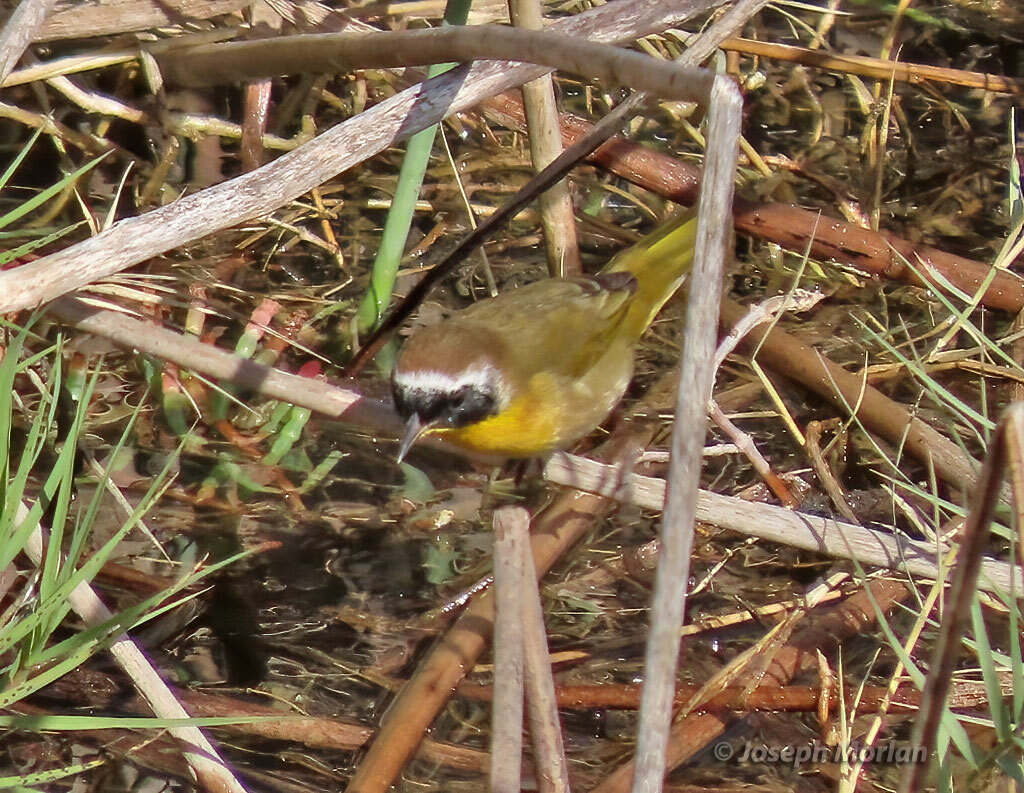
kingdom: Animalia
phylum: Chordata
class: Aves
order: Passeriformes
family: Parulidae
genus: Geothlypis
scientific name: Geothlypis trichas
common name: Common yellowthroat
